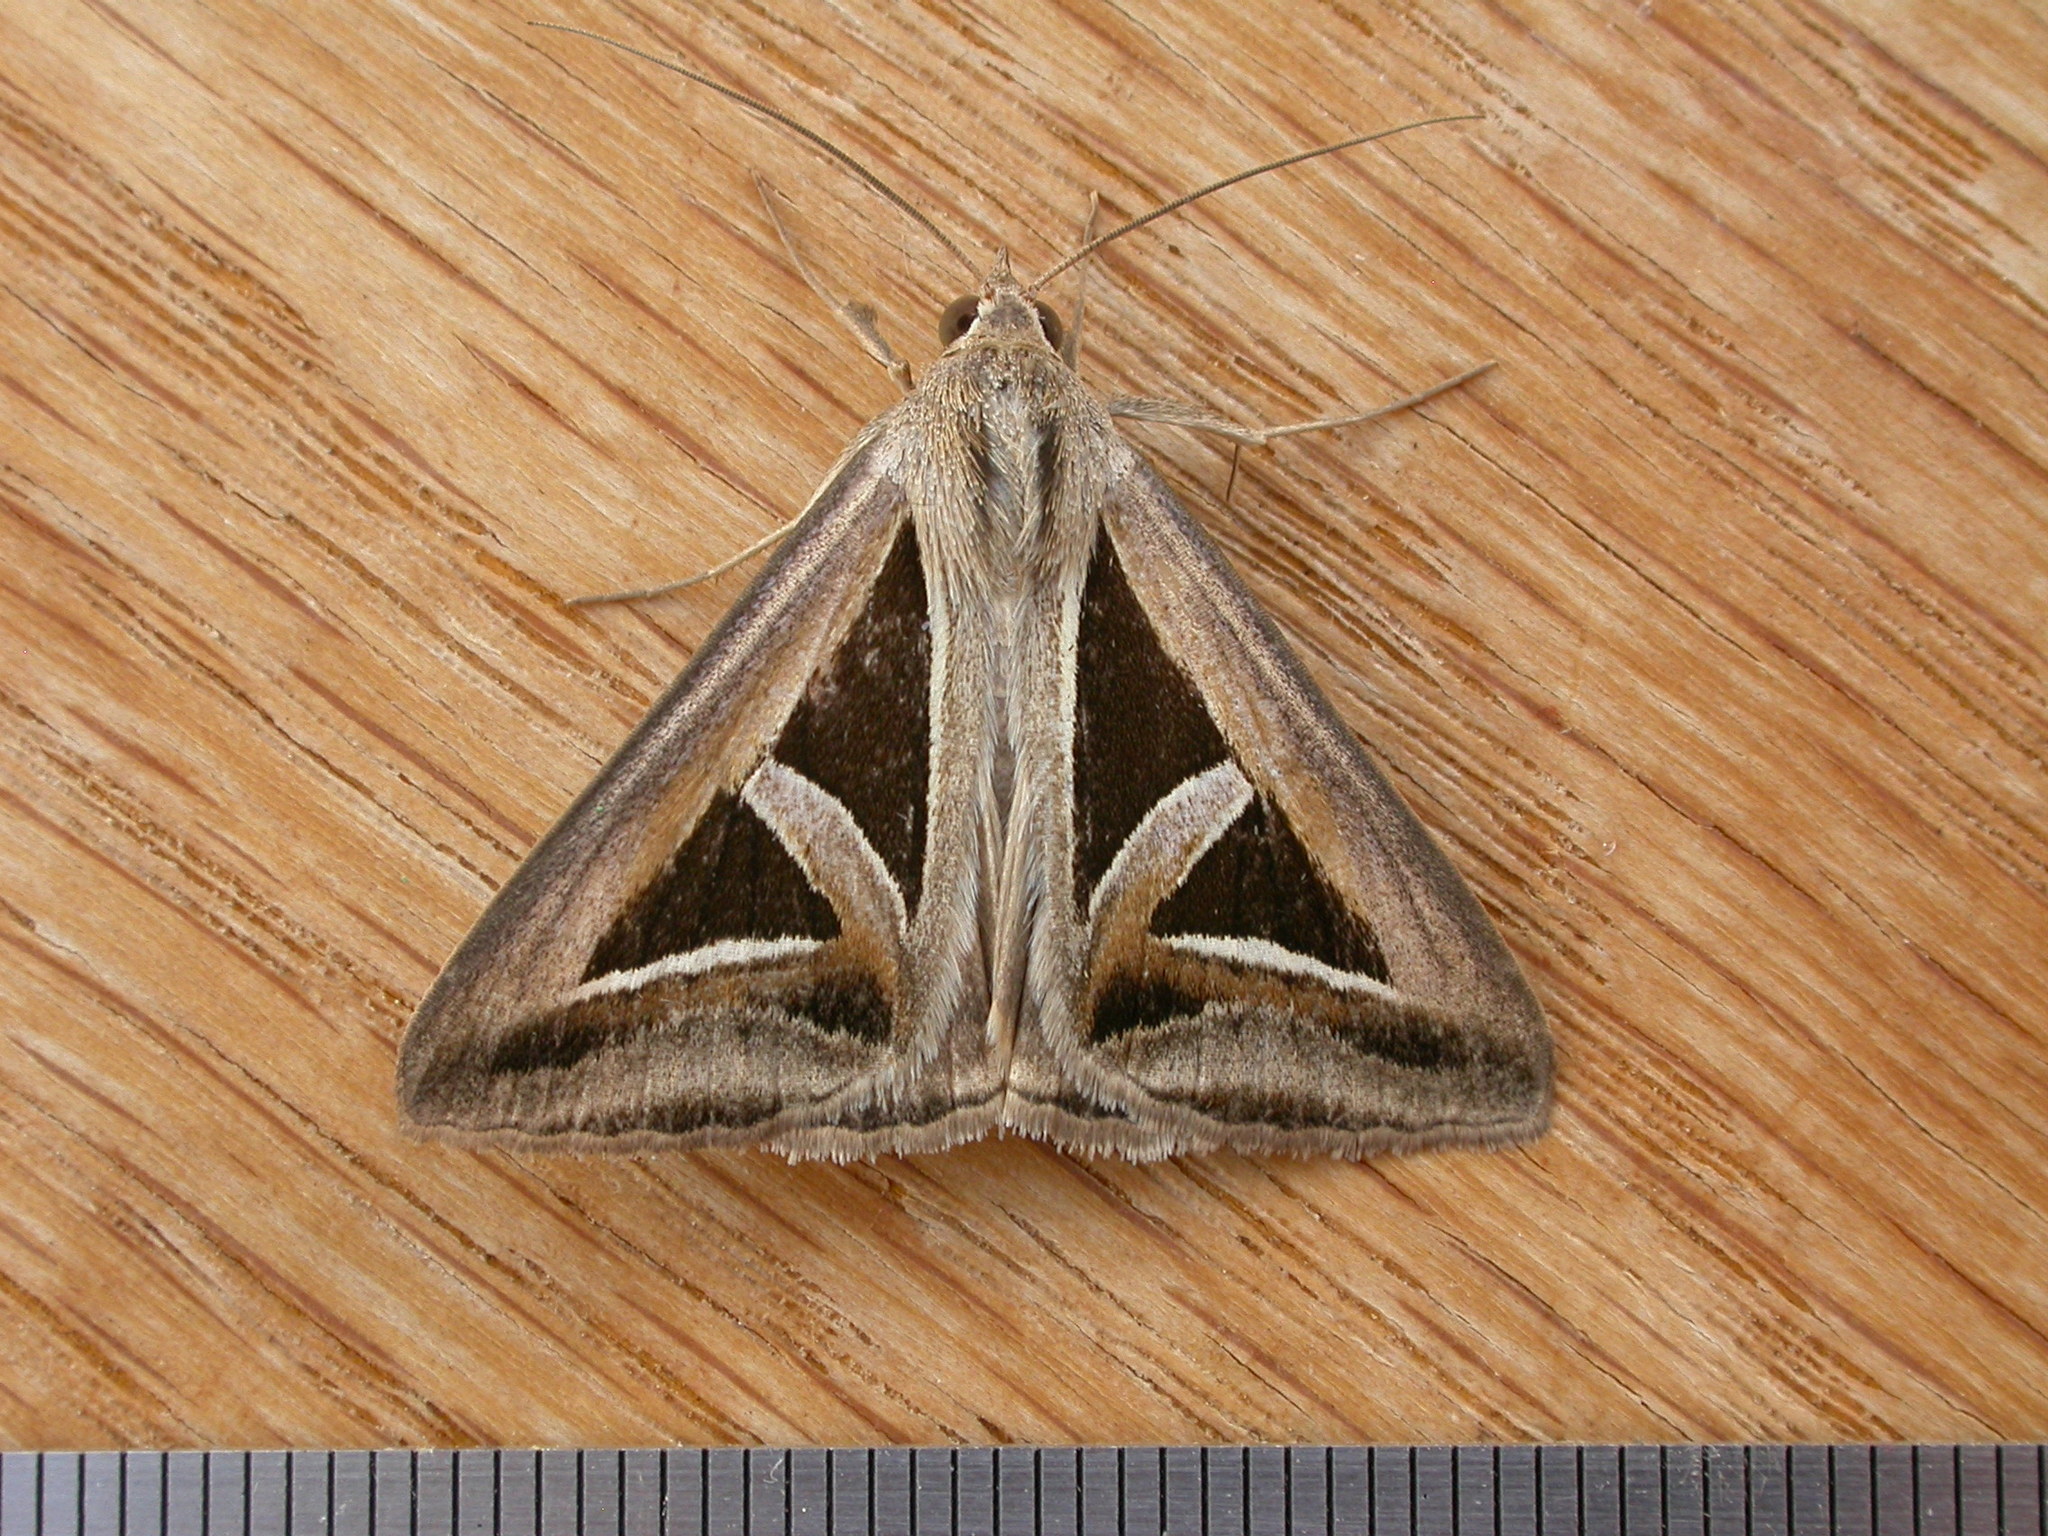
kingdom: Animalia
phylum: Arthropoda
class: Insecta
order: Lepidoptera
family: Erebidae
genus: Trigonodes
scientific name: Trigonodes hyppasia
